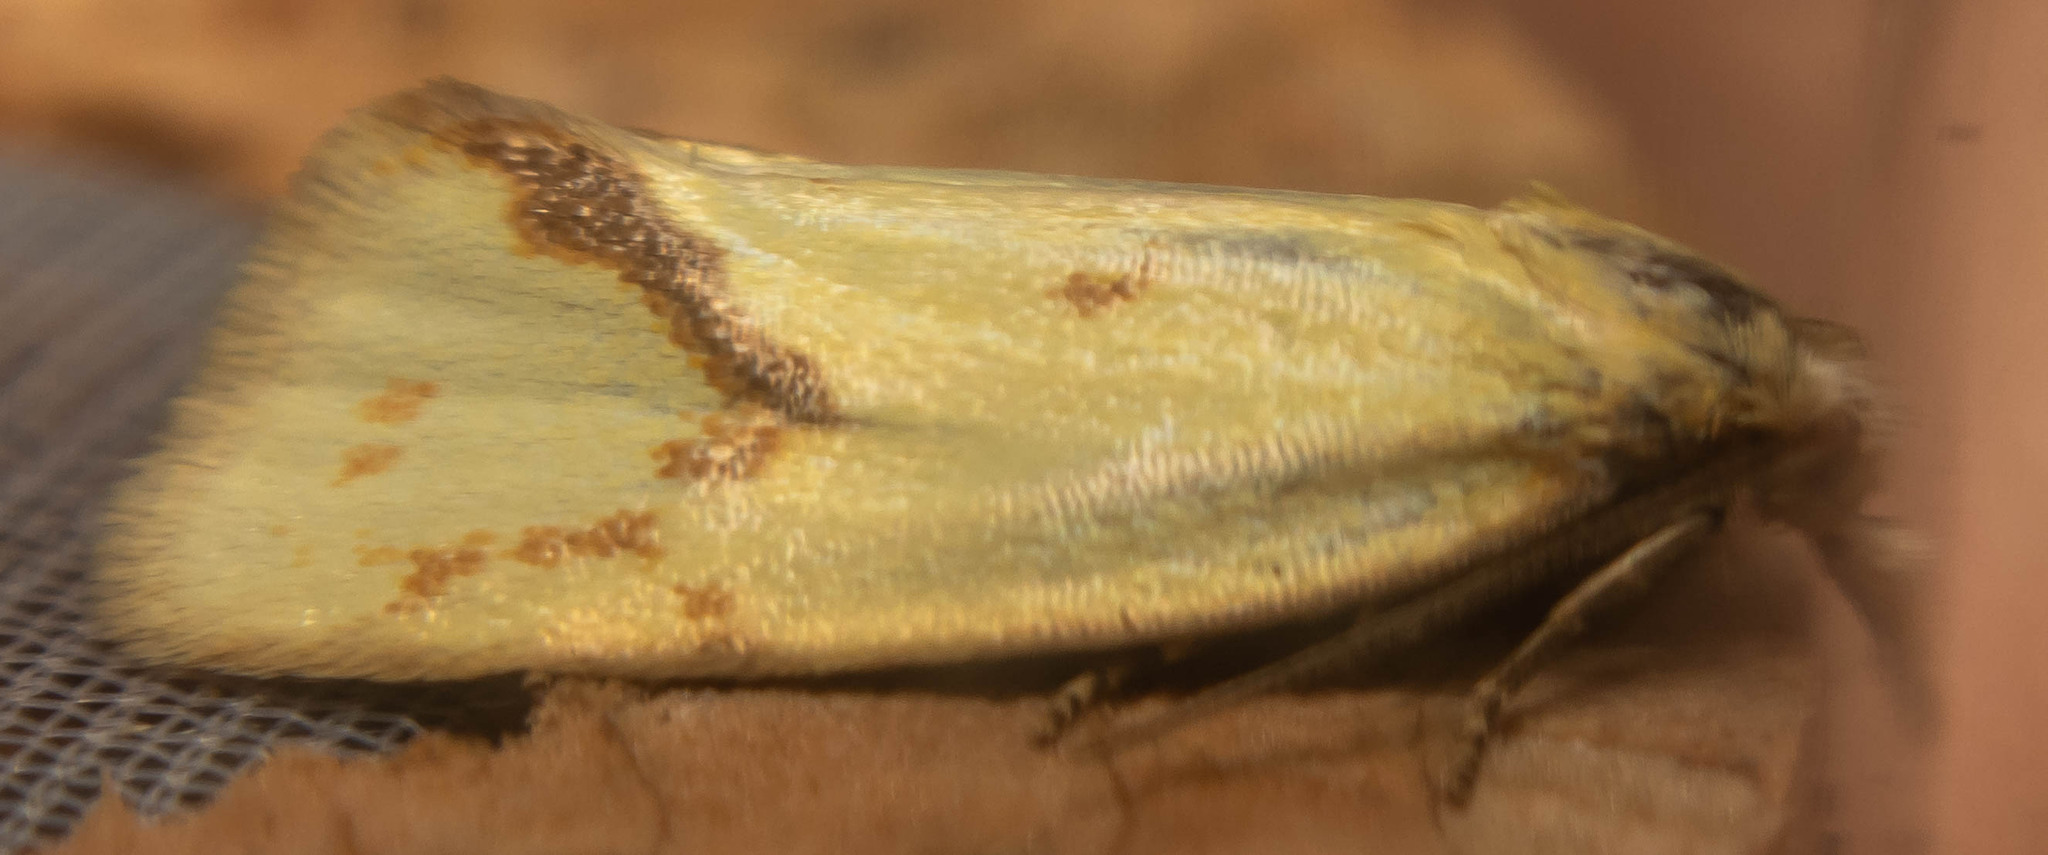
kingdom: Animalia
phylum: Arthropoda
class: Insecta
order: Lepidoptera
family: Tortricidae
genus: Agapeta
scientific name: Agapeta hamana
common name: Common yellow conch
